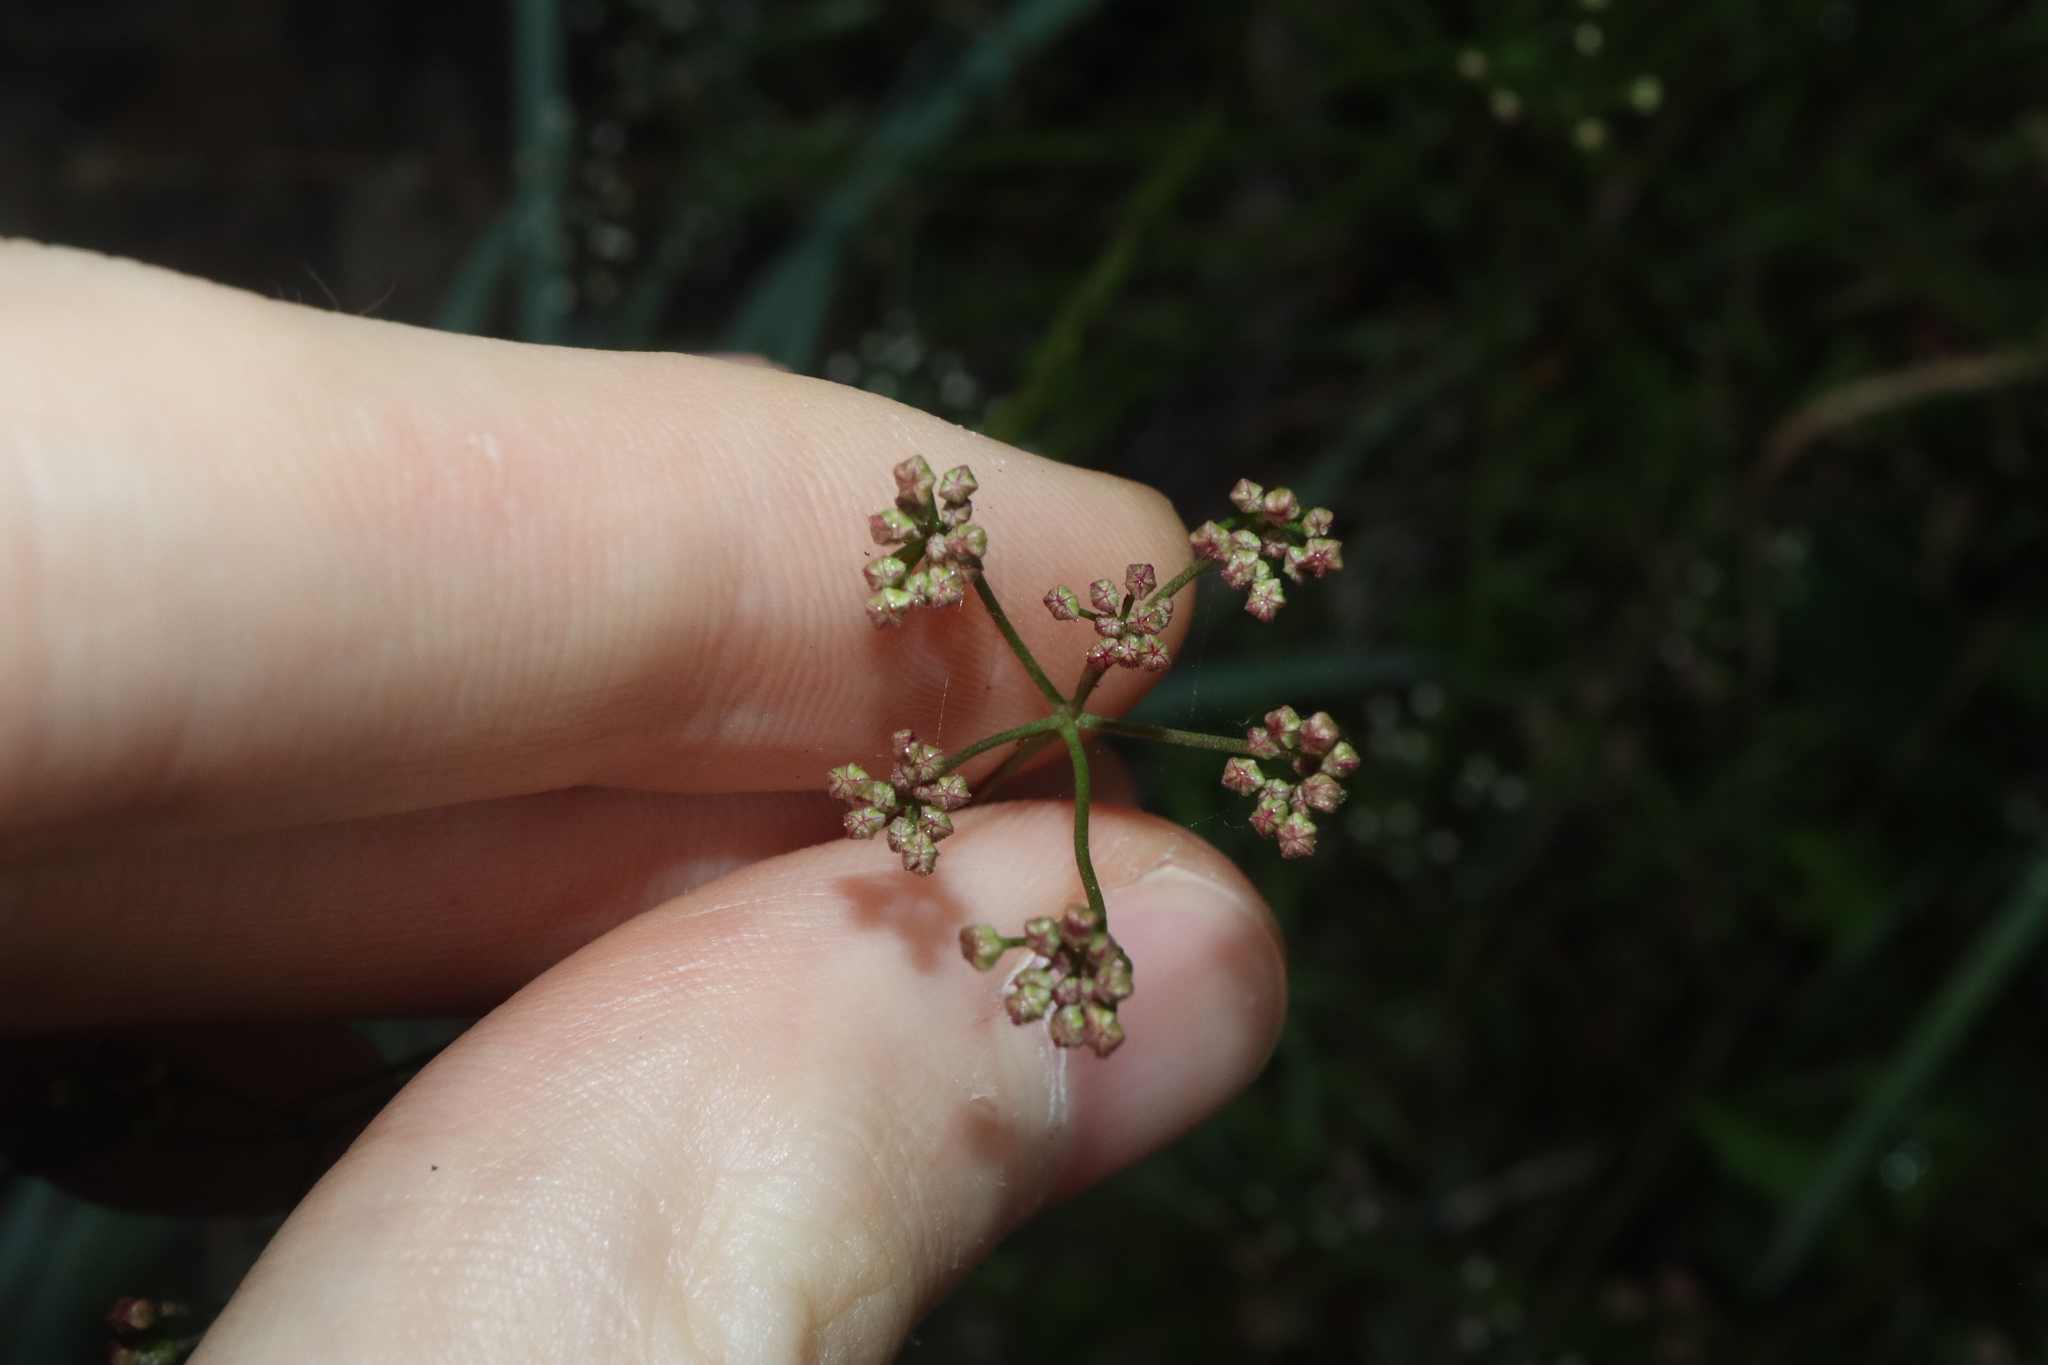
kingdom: Plantae
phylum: Tracheophyta
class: Magnoliopsida
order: Apiales
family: Apiaceae
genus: Platysace
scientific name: Platysace linearifolia
